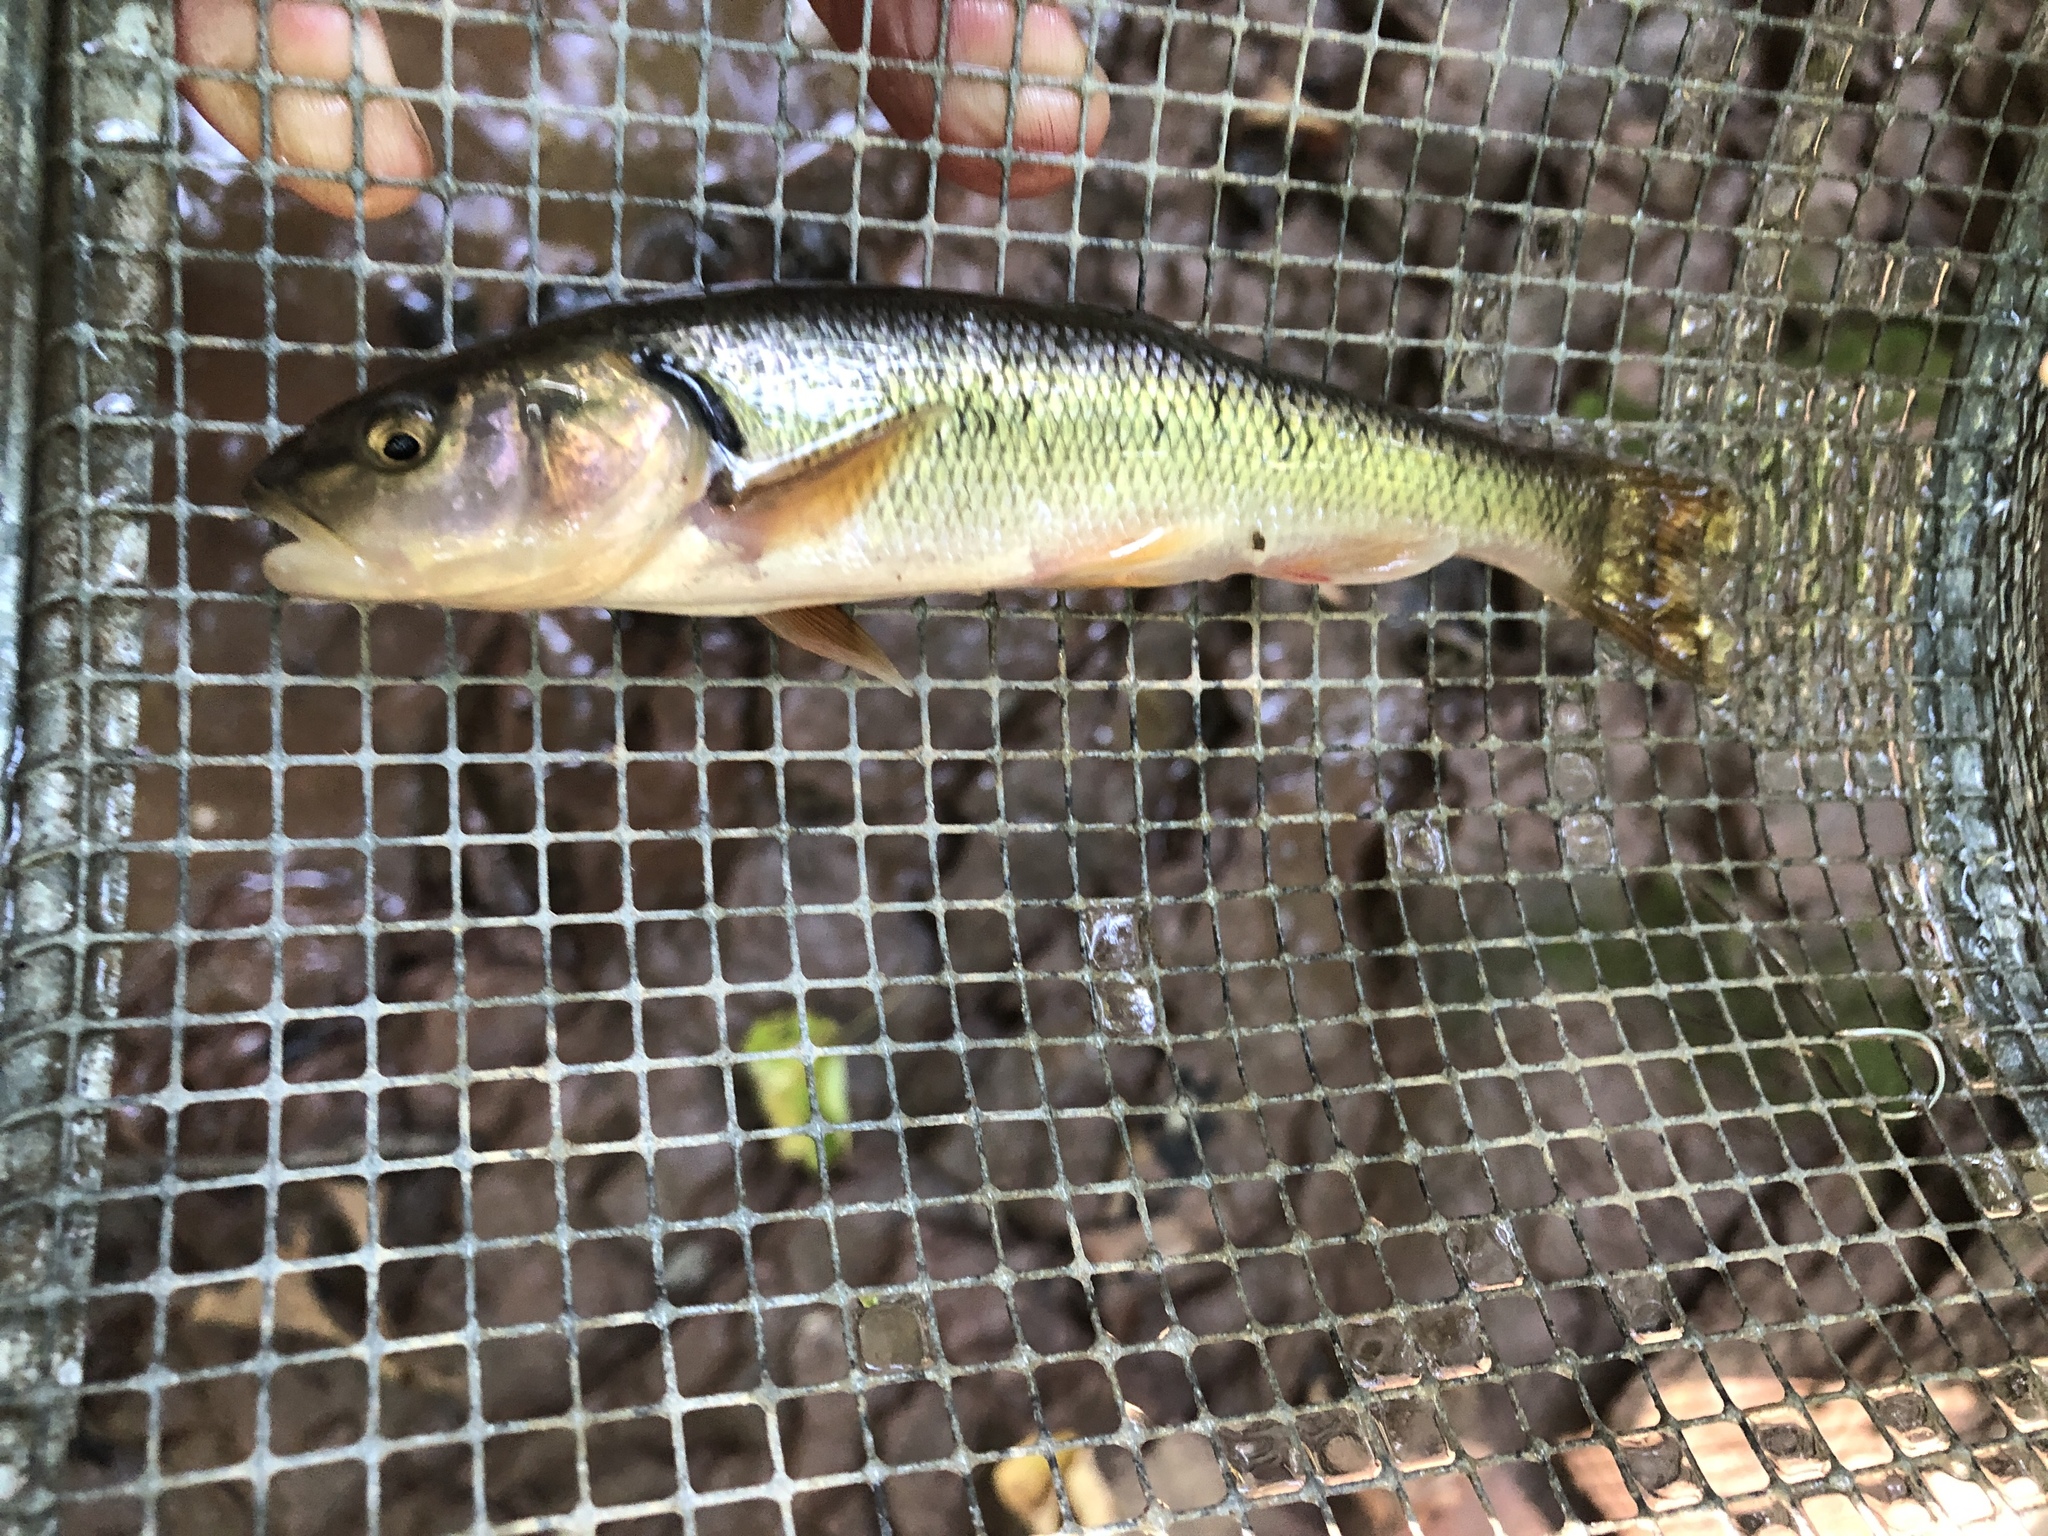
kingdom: Animalia
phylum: Chordata
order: Cypriniformes
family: Cyprinidae
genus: Semotilus
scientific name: Semotilus atromaculatus
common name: Creek chub
